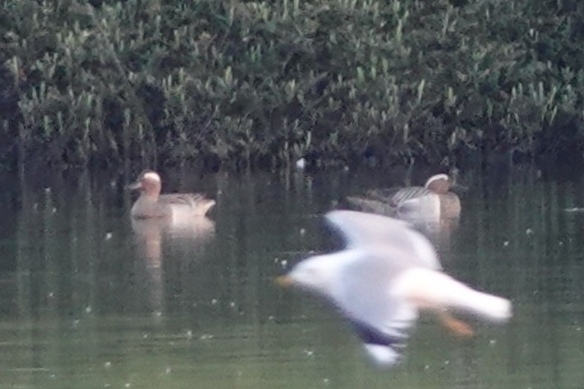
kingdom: Animalia
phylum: Chordata
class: Aves
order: Anseriformes
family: Anatidae
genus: Spatula
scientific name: Spatula querquedula
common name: Garganey
